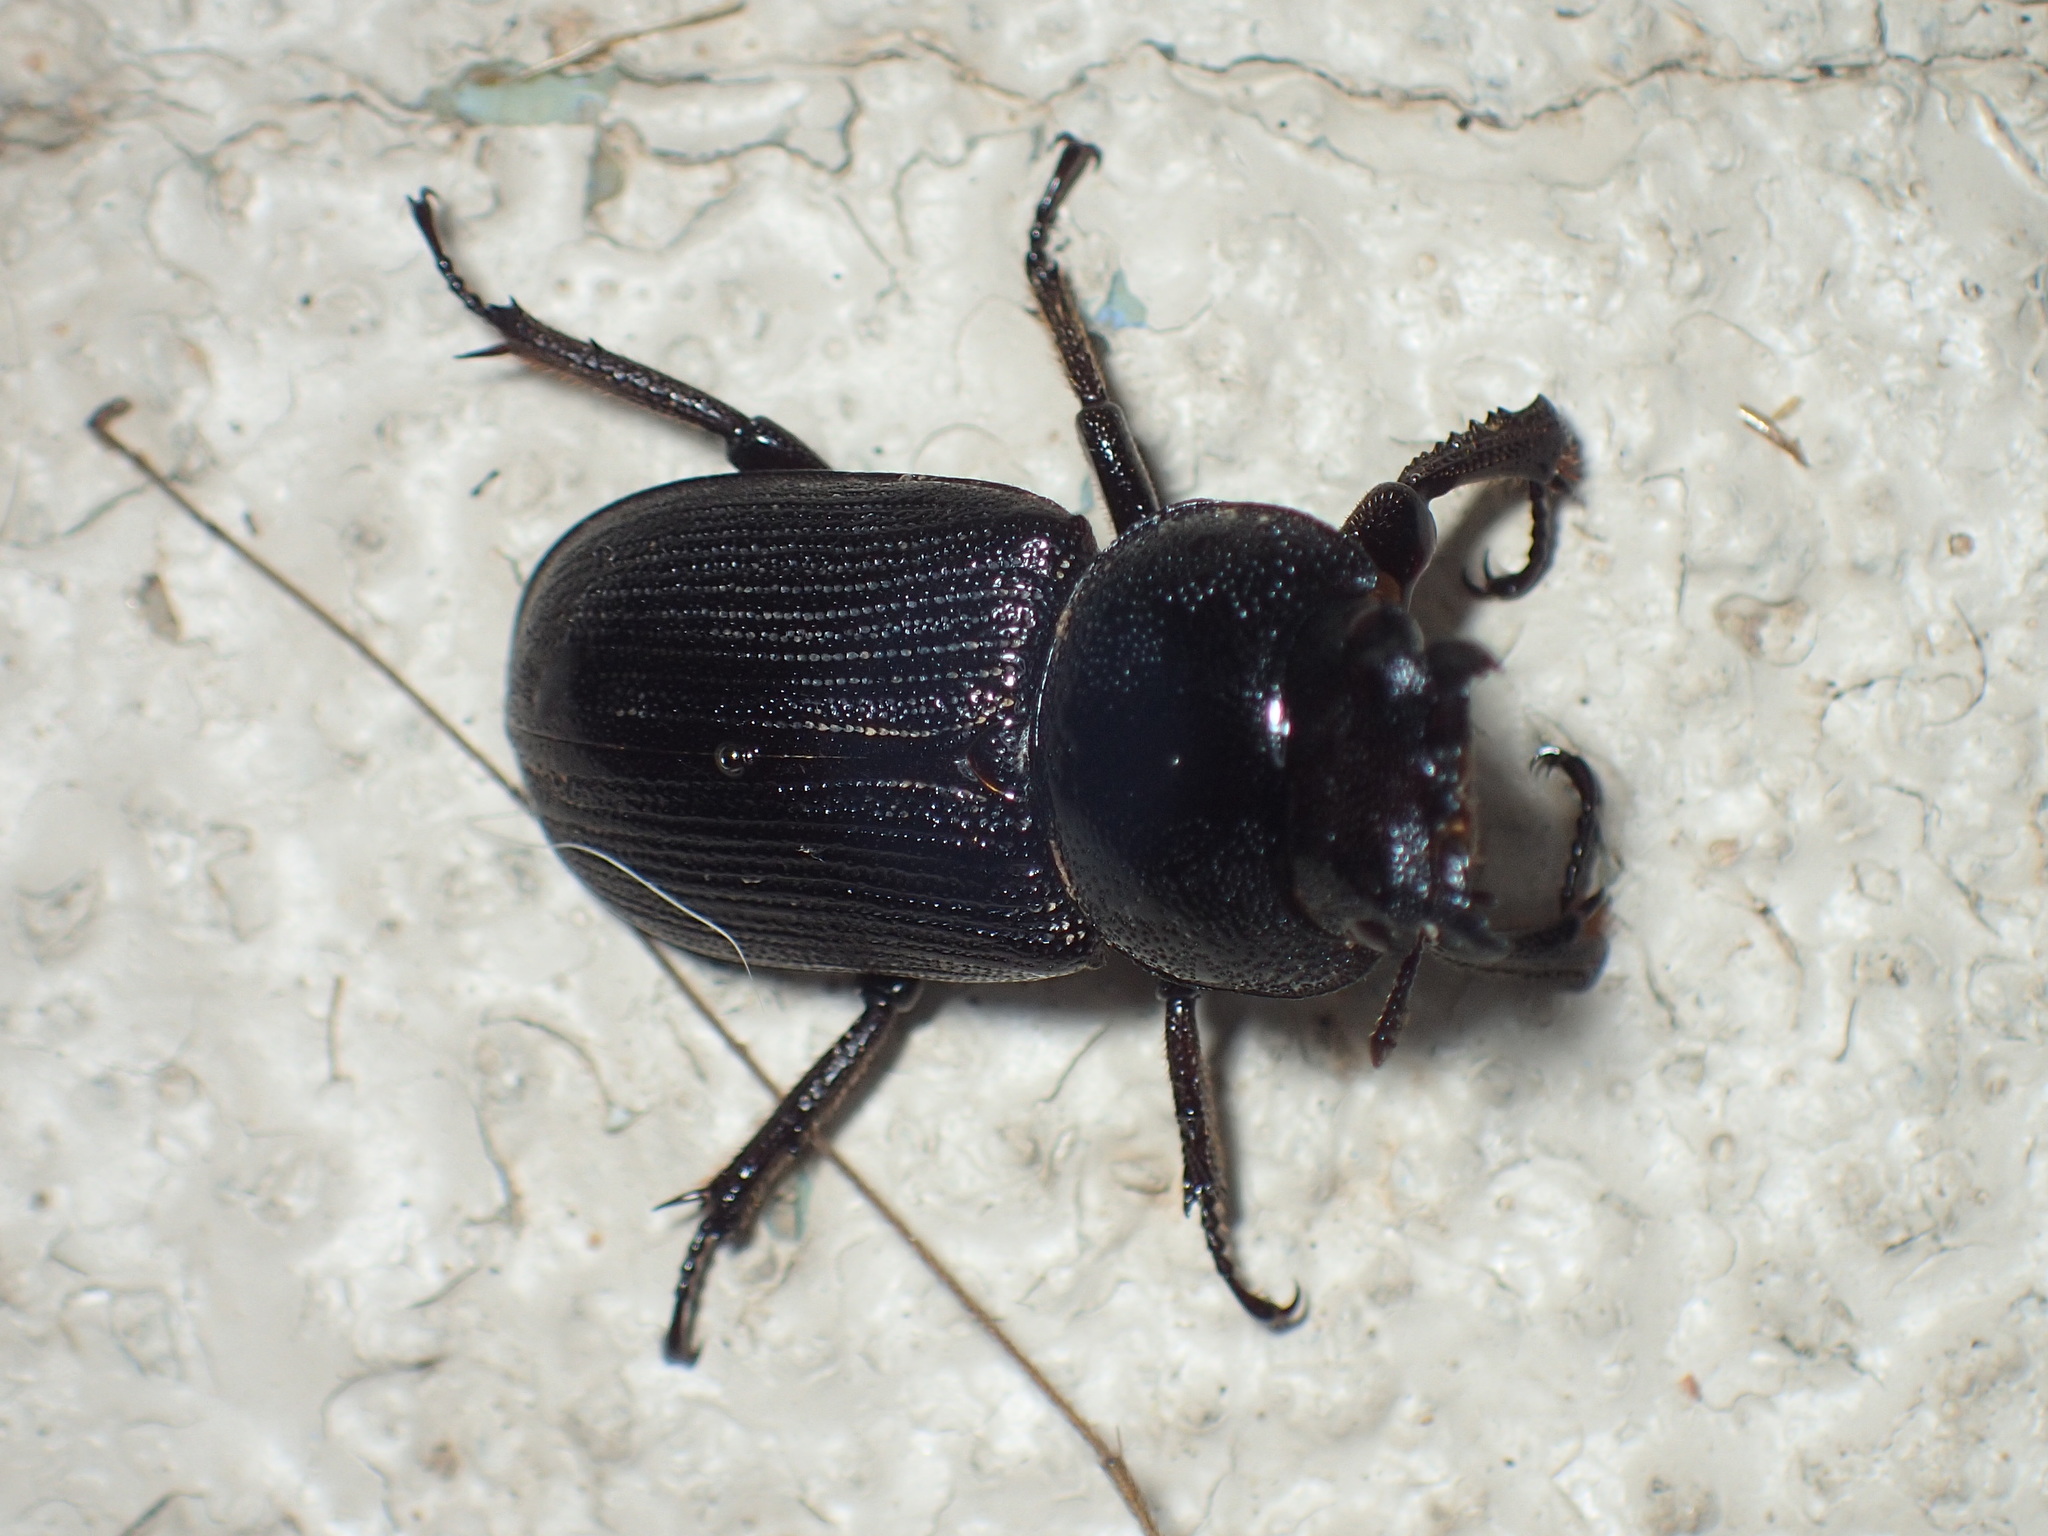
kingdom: Animalia
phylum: Arthropoda
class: Insecta
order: Coleoptera
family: Lucanidae
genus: Dorcus
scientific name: Dorcus parallelus
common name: Antelope beetle
